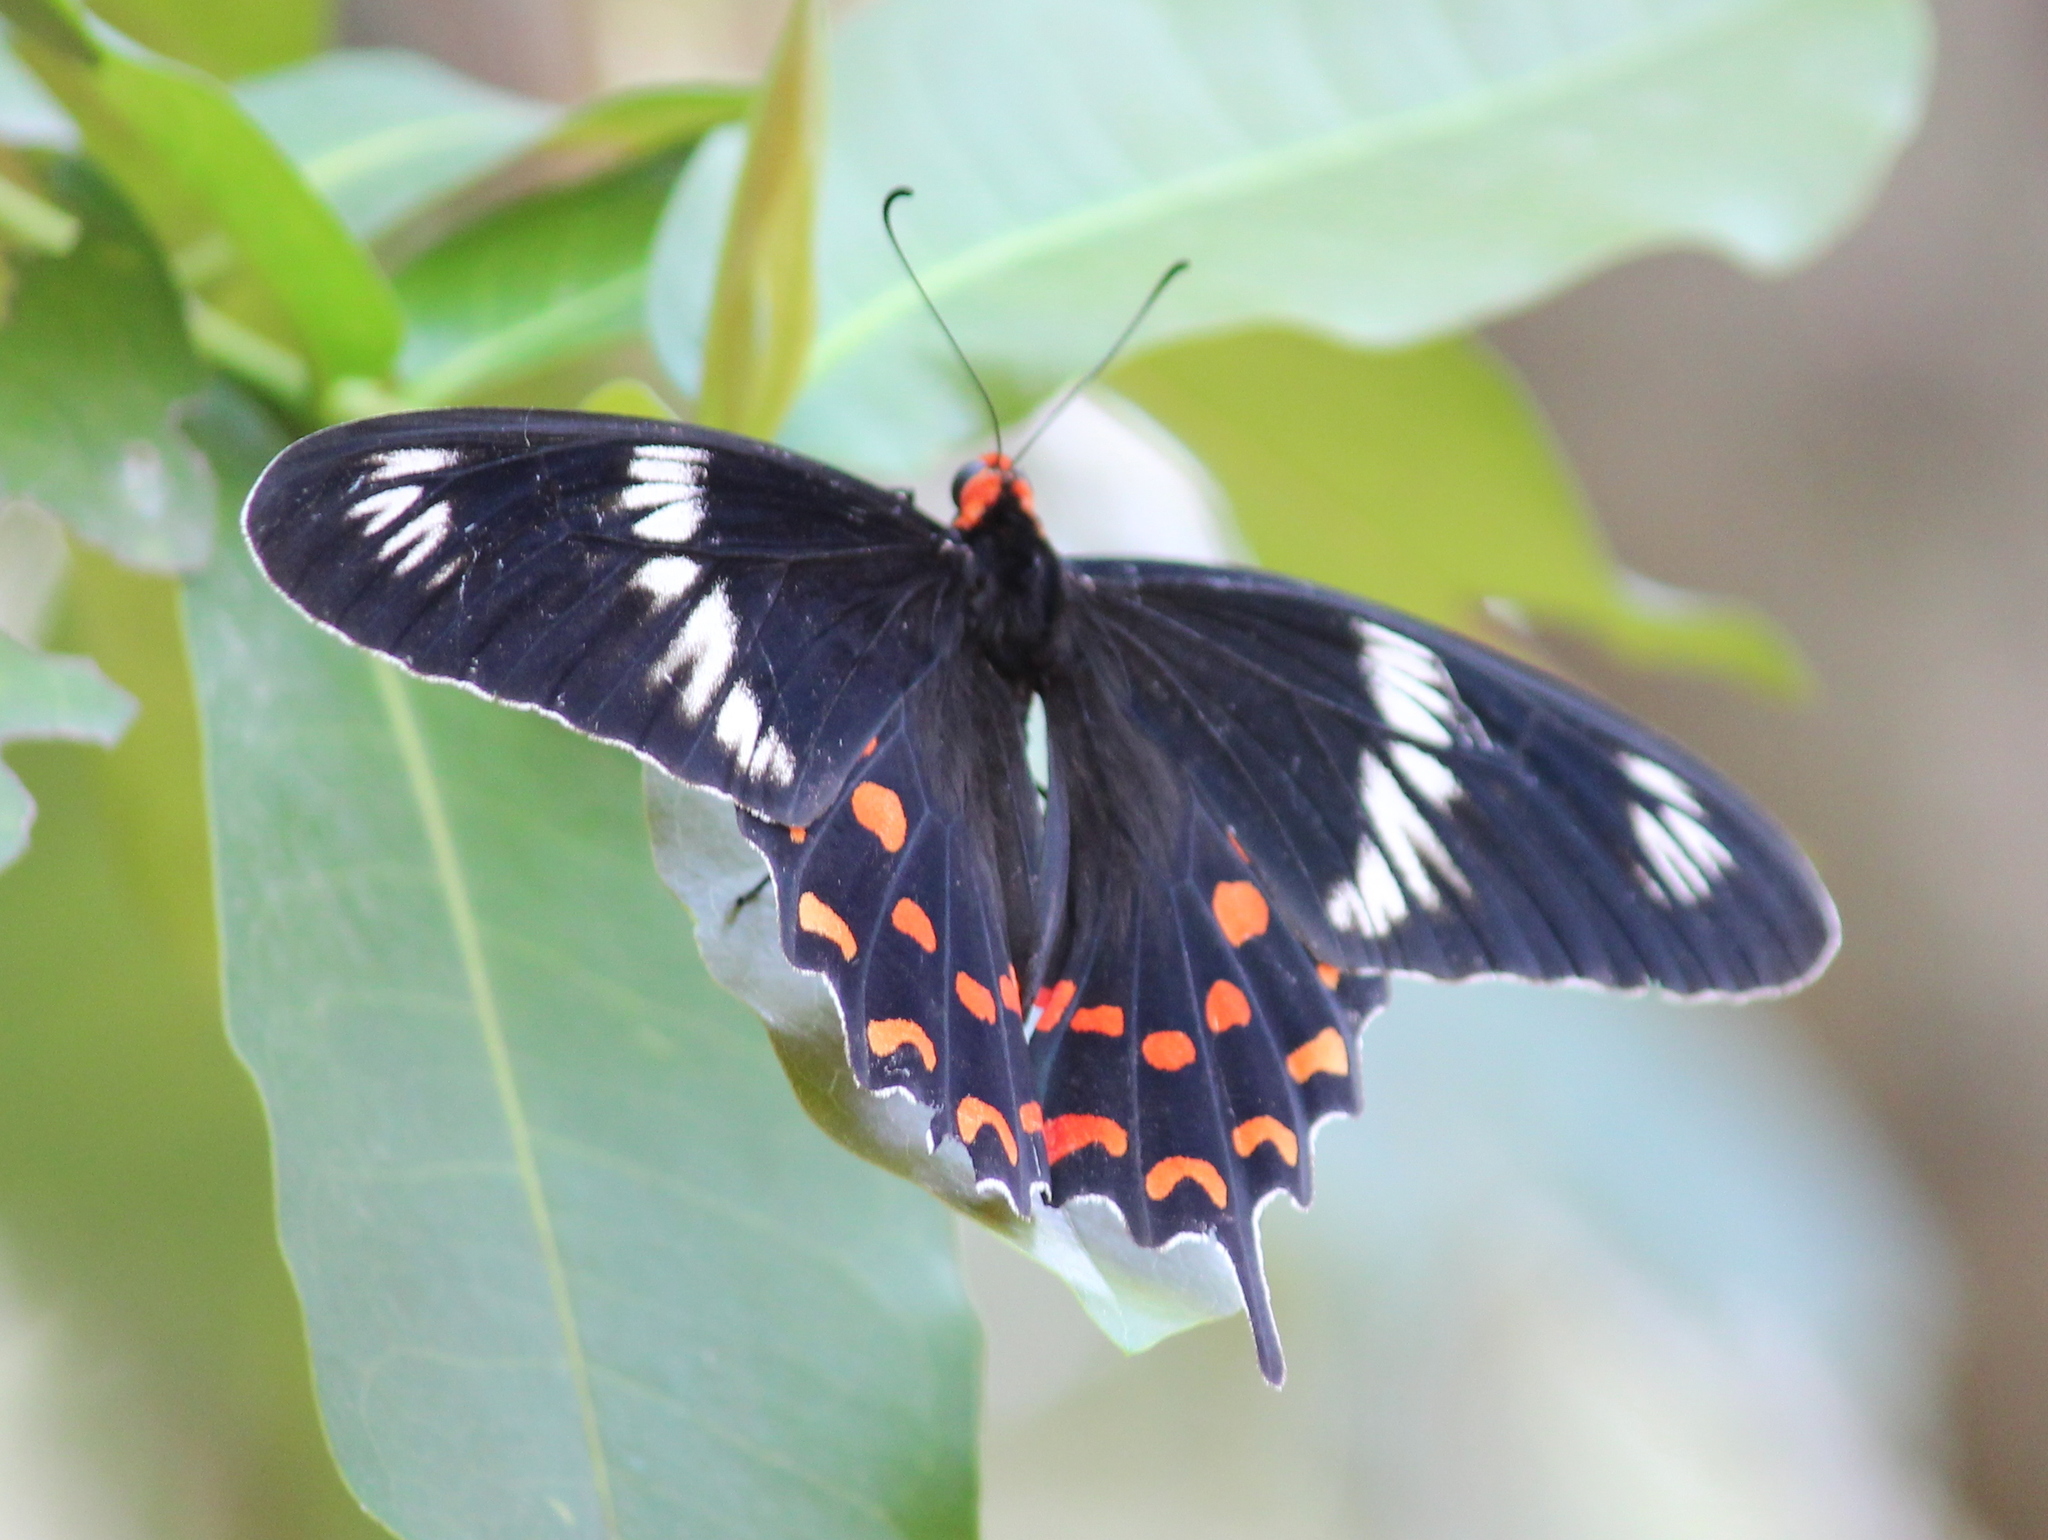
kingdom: Animalia
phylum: Arthropoda
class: Insecta
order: Lepidoptera
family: Papilionidae
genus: Pachliopta
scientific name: Pachliopta hector
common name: Crimson rose
